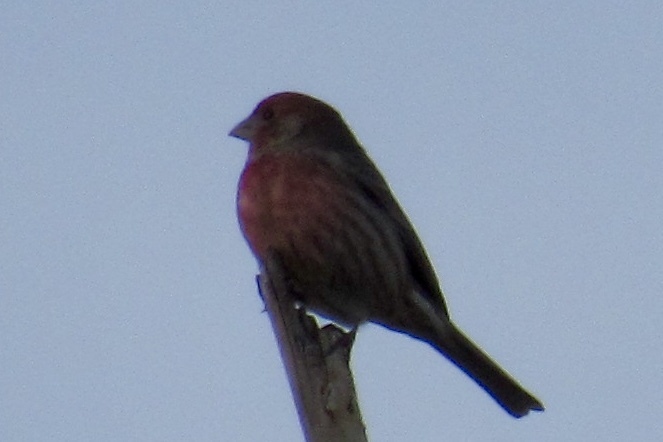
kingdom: Animalia
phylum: Chordata
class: Aves
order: Passeriformes
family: Fringillidae
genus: Haemorhous
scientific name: Haemorhous mexicanus
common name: House finch
